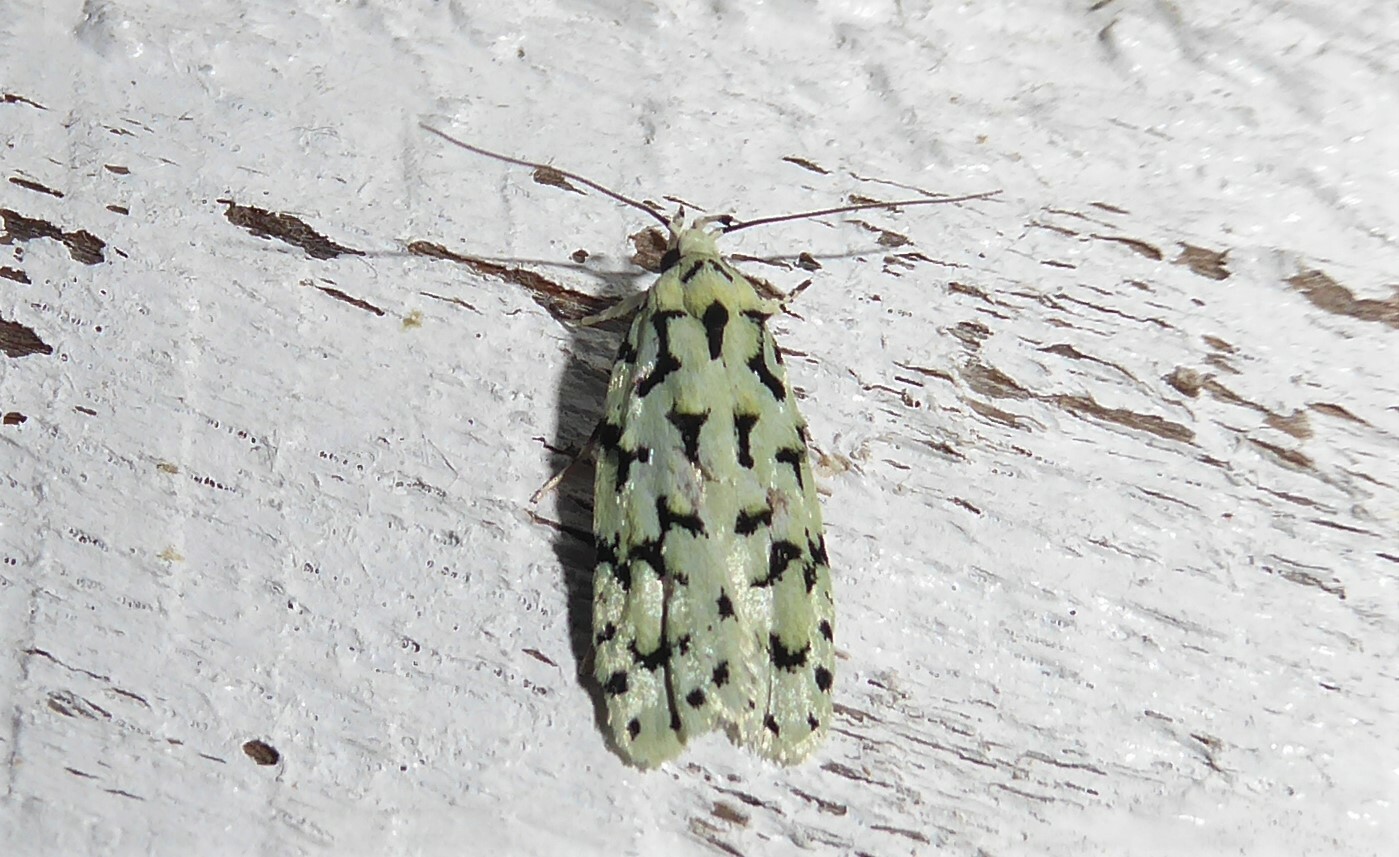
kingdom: Animalia
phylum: Arthropoda
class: Insecta
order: Lepidoptera
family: Oecophoridae
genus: Izatha
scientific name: Izatha huttoni
